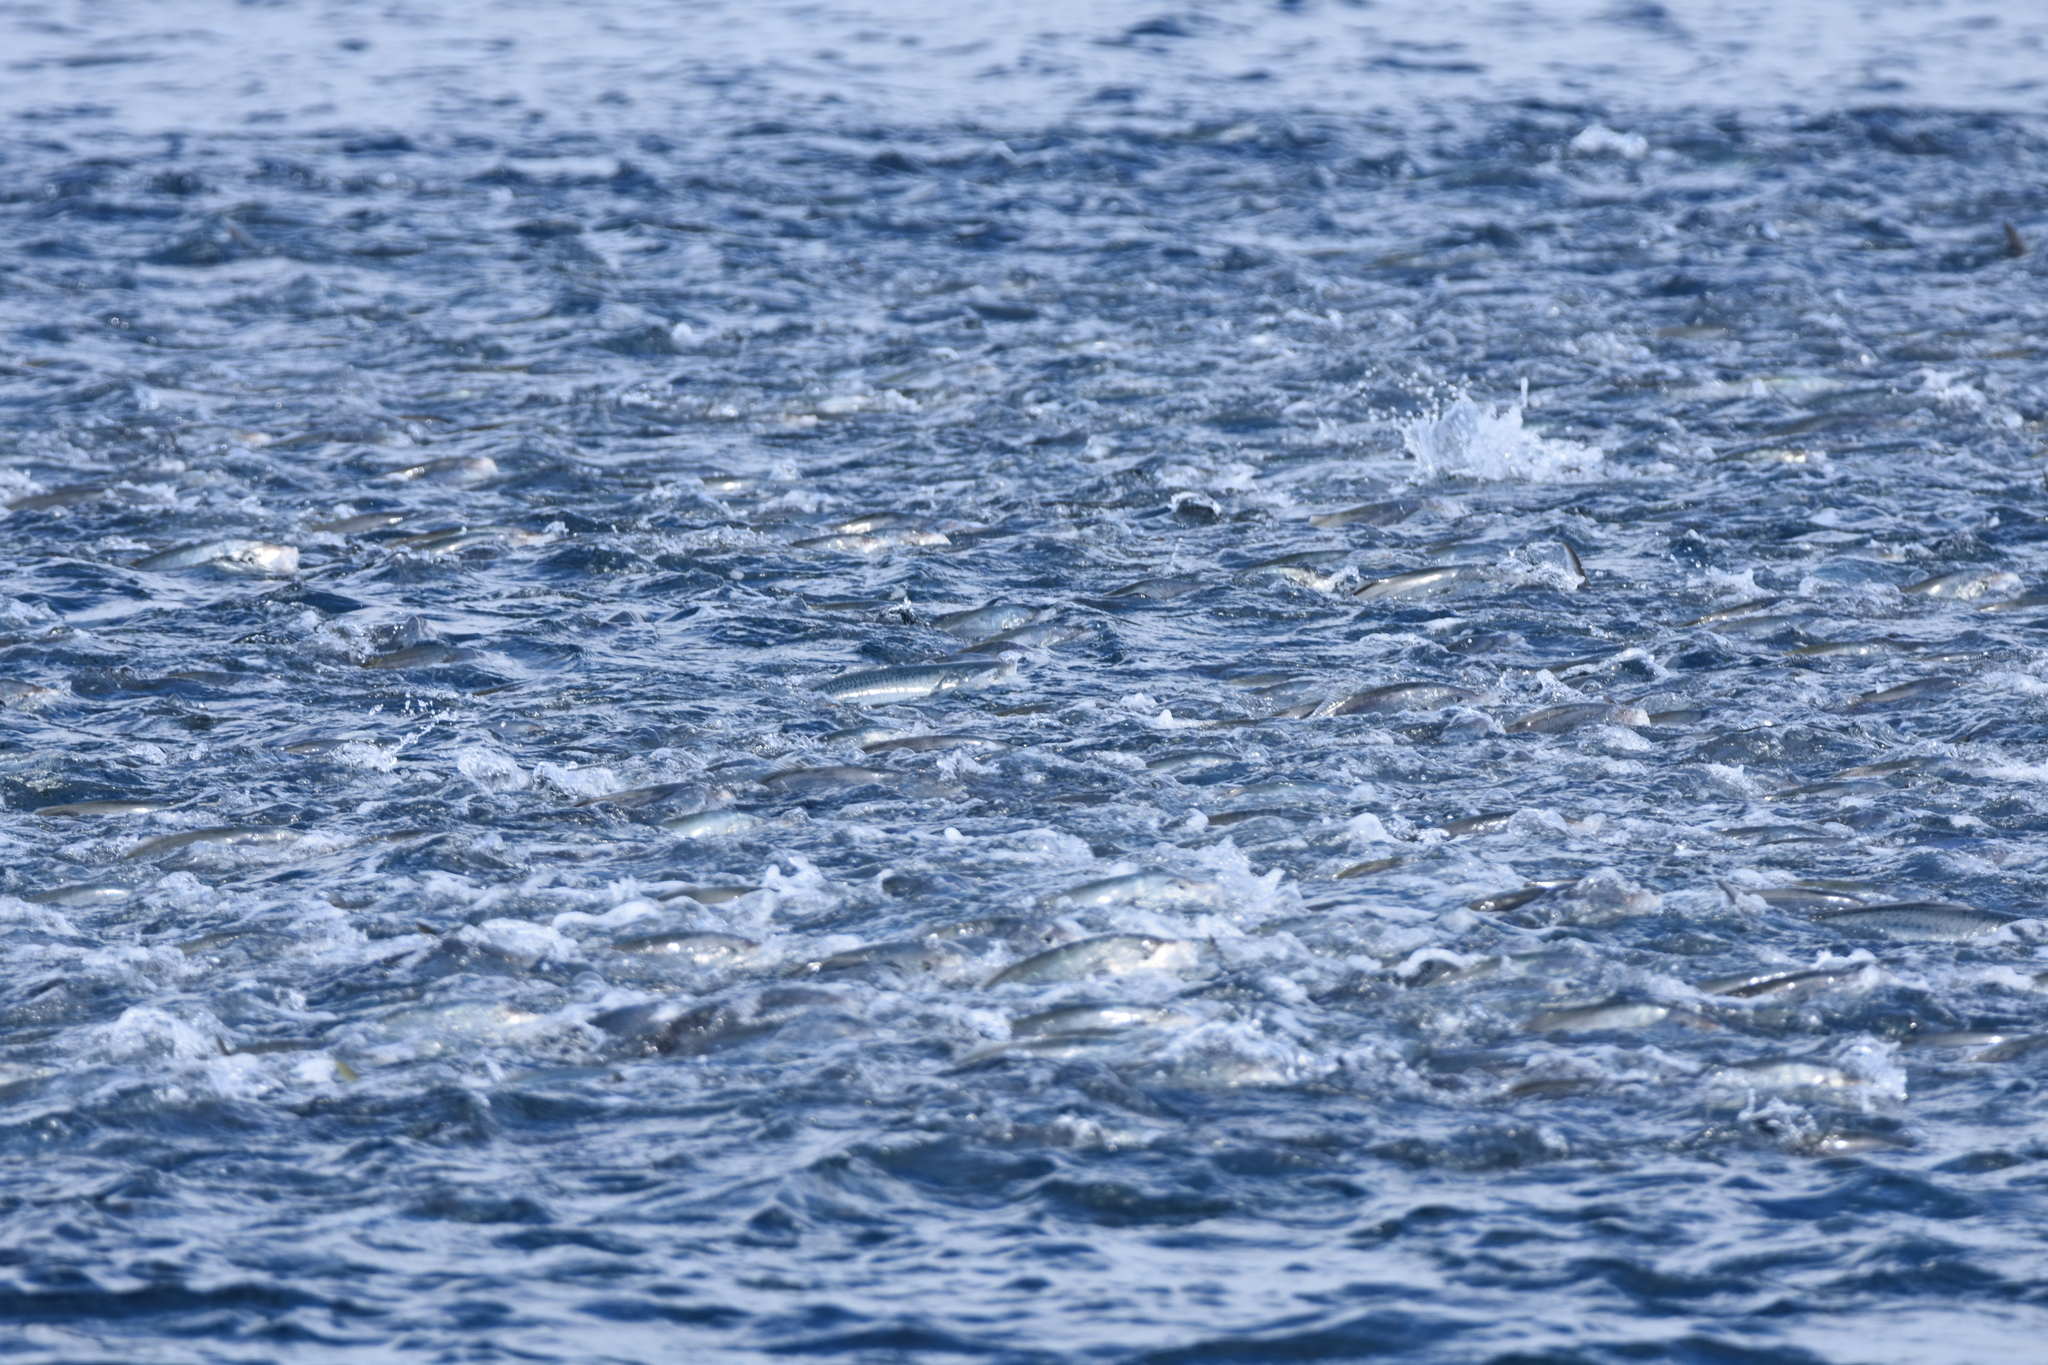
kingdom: Animalia
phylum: Chordata
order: Perciformes
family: Carangidae
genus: Pseudocaranx
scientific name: Pseudocaranx dentex
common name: White trevally
